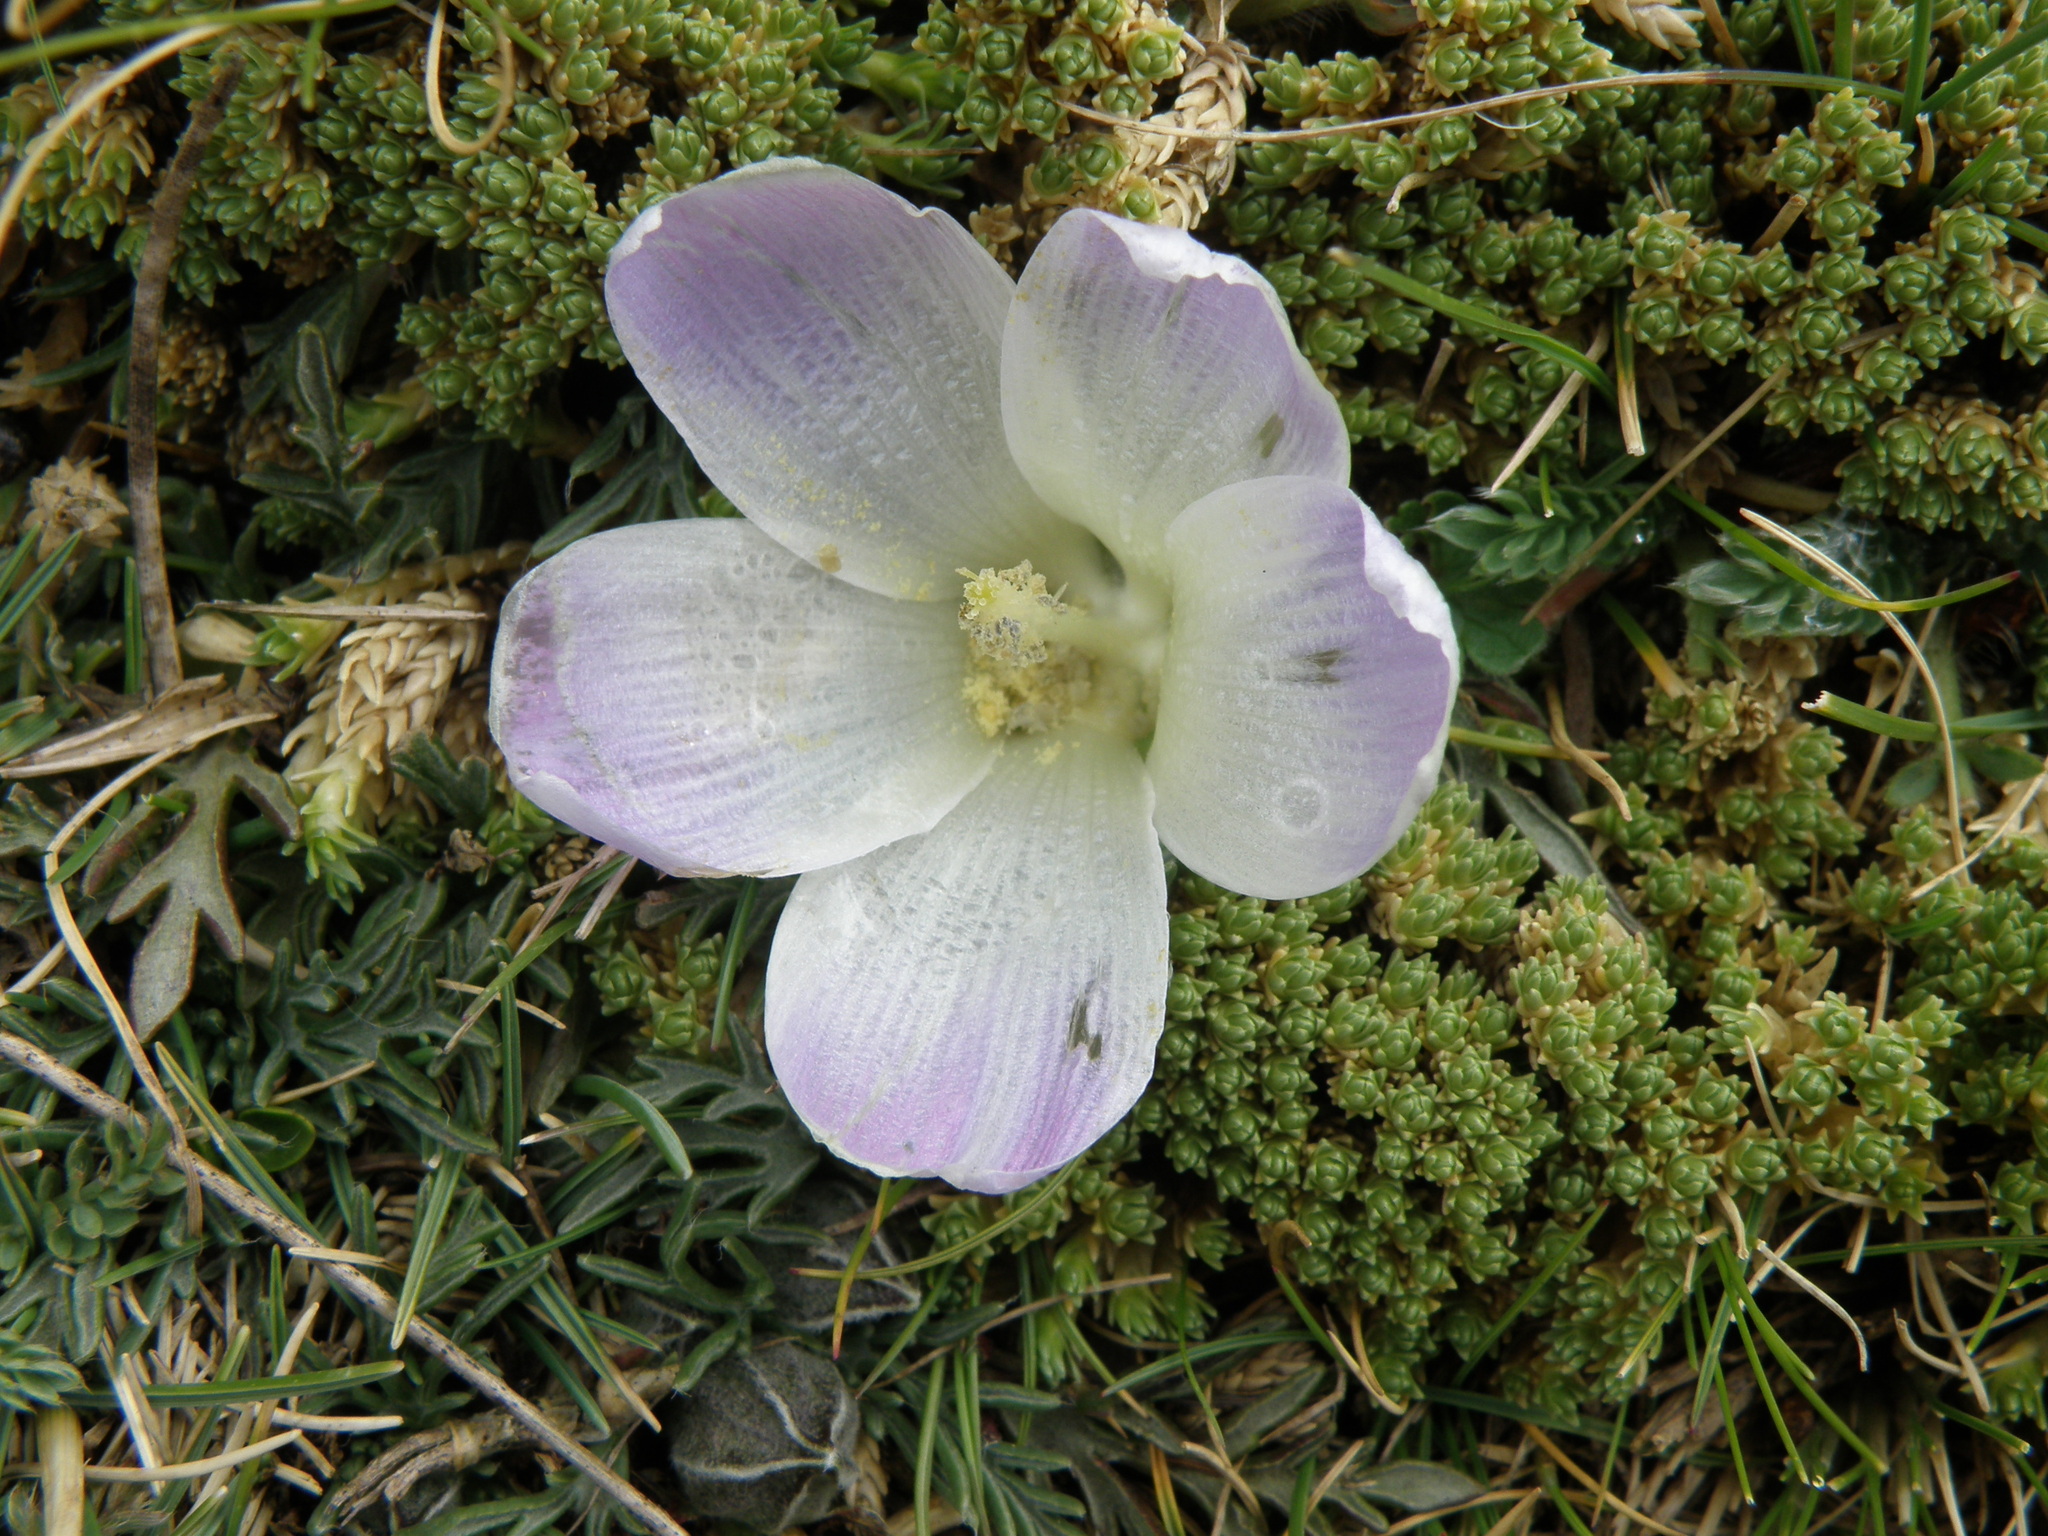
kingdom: Plantae
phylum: Tracheophyta
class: Magnoliopsida
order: Malvales
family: Malvaceae
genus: Nototriche
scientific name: Nototriche pinnata
